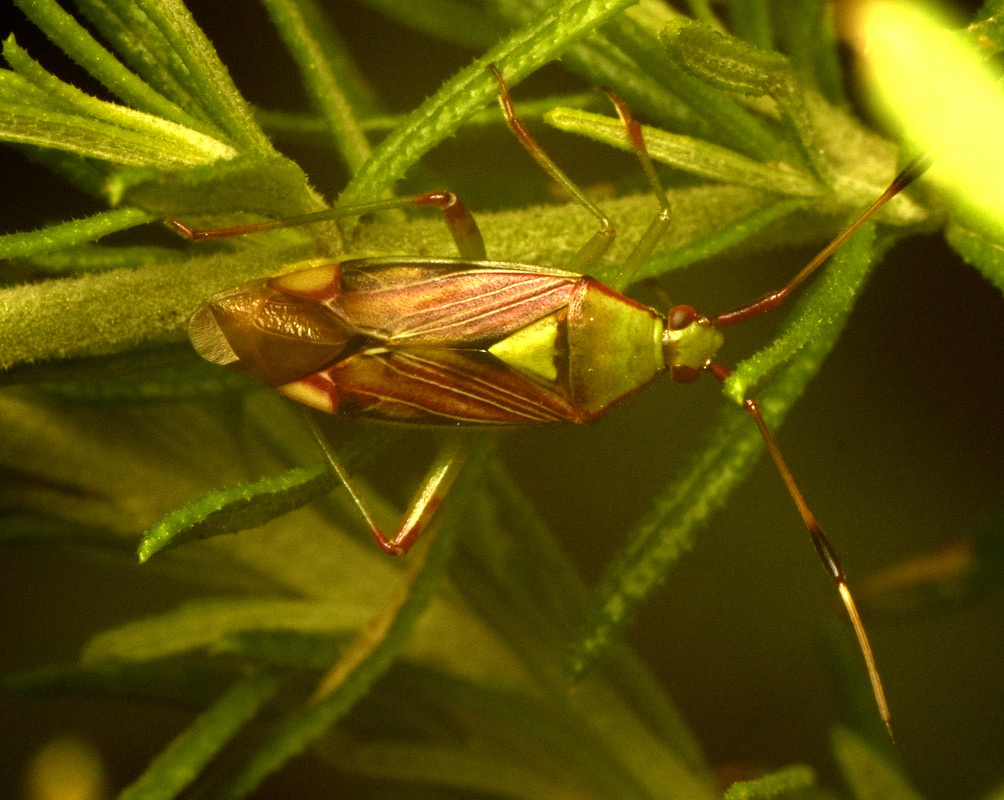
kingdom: Animalia
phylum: Arthropoda
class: Insecta
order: Hemiptera
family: Miridae
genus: Pseudopantilius
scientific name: Pseudopantilius australis
